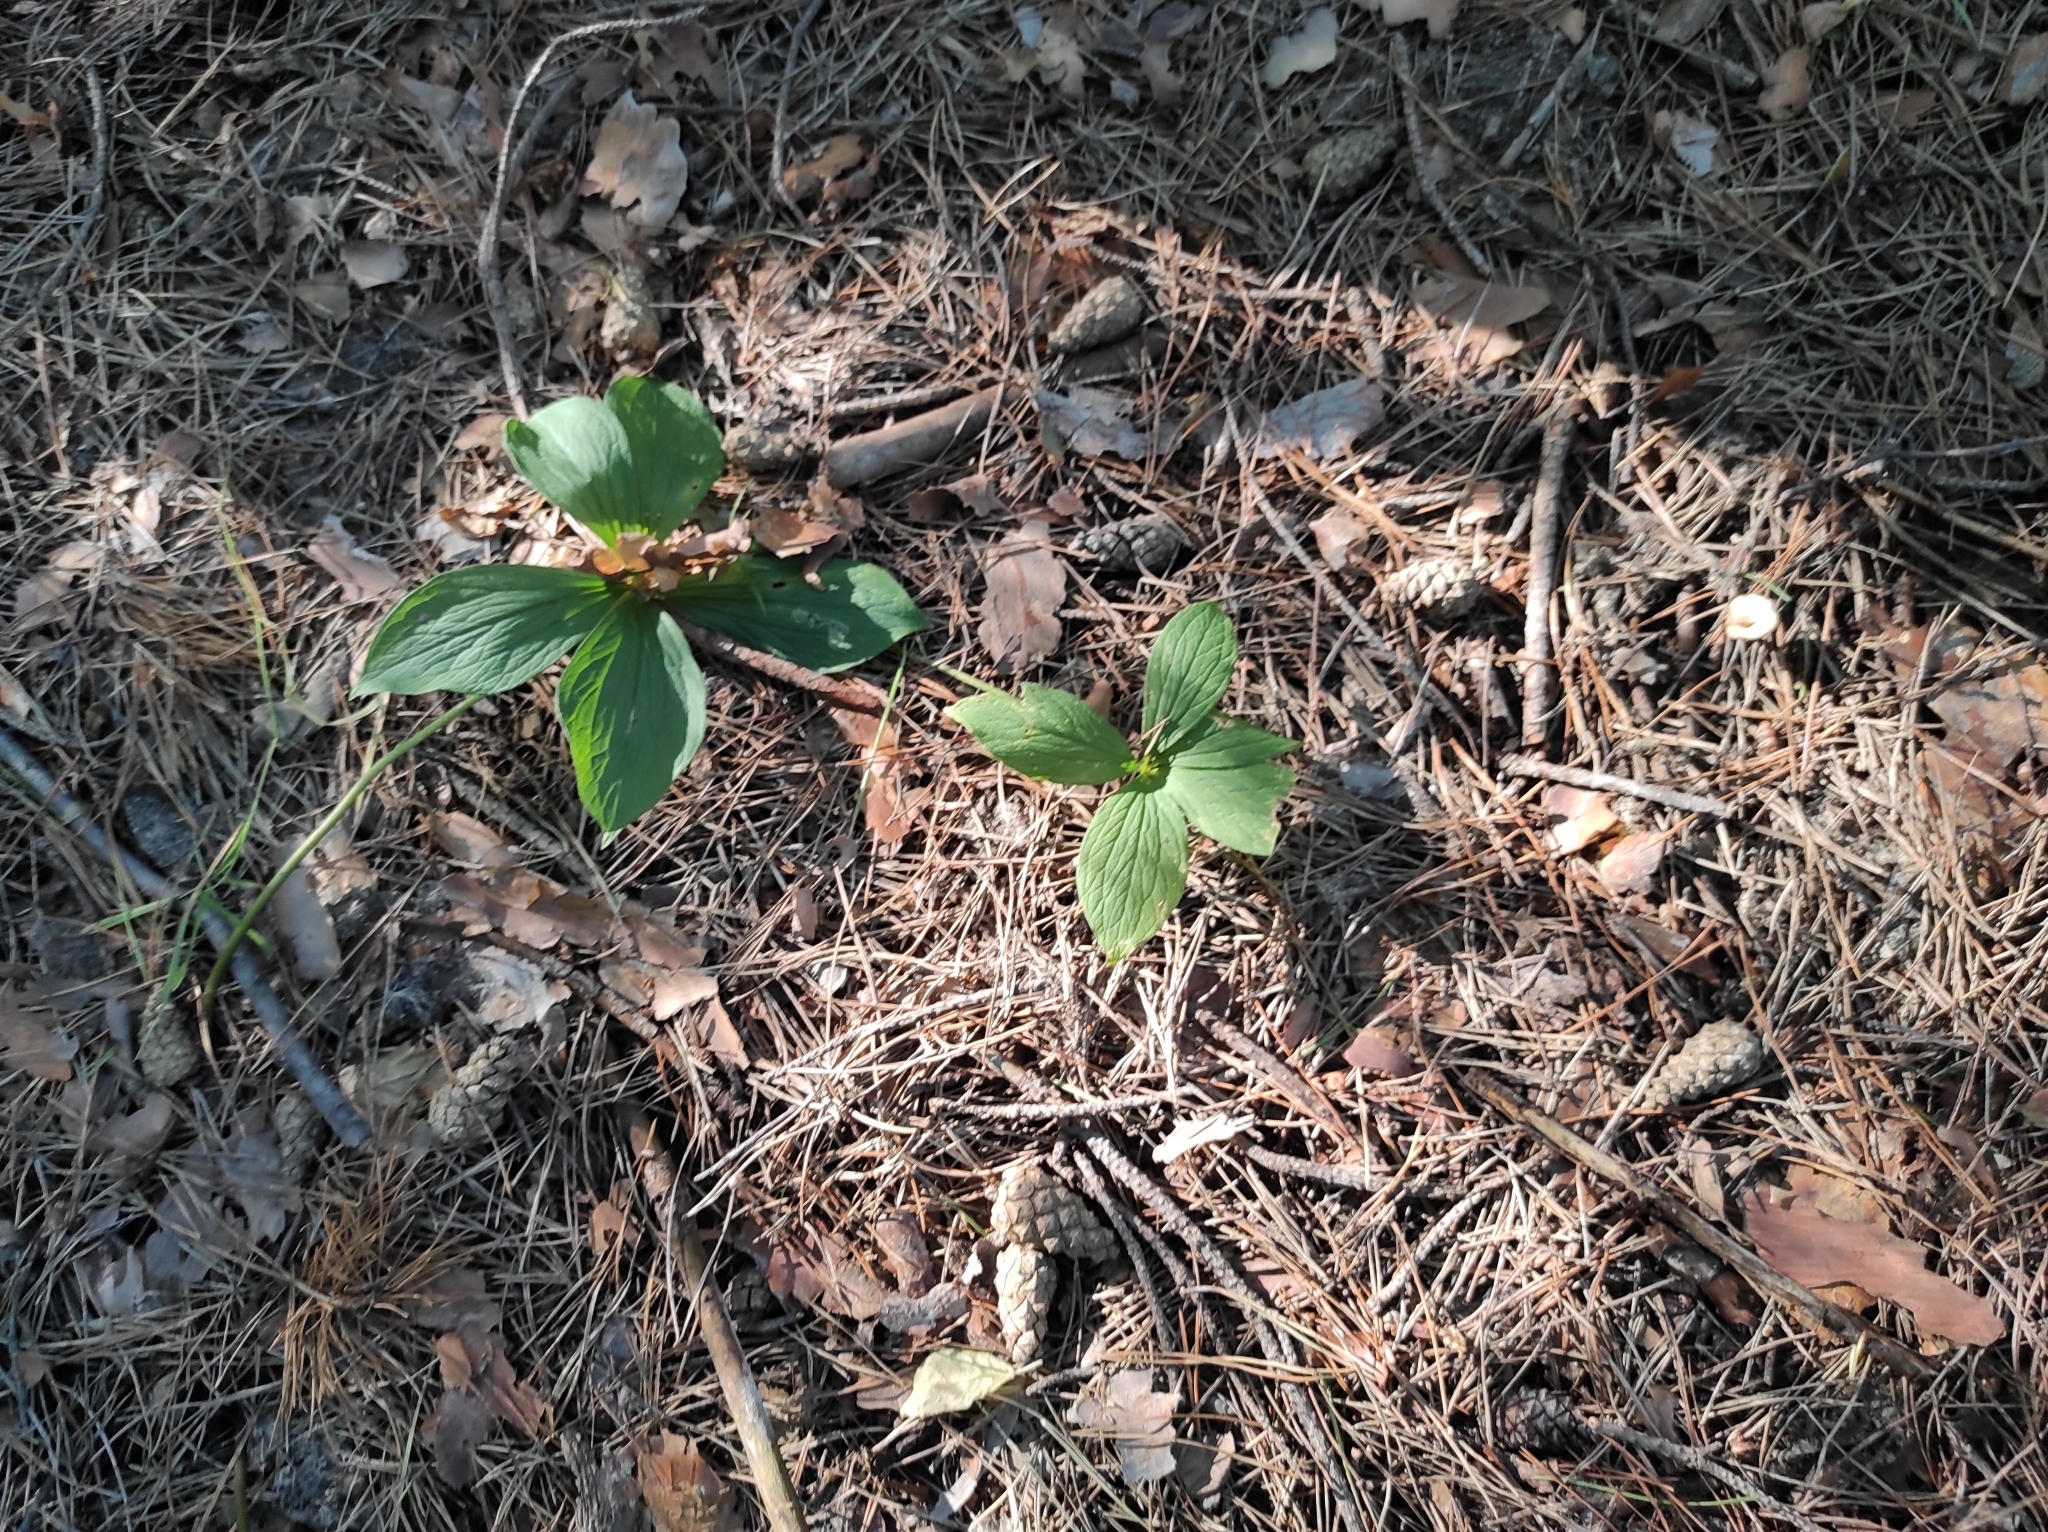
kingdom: Plantae
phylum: Tracheophyta
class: Liliopsida
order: Liliales
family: Melanthiaceae
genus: Paris
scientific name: Paris quadrifolia
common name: Herb-paris
